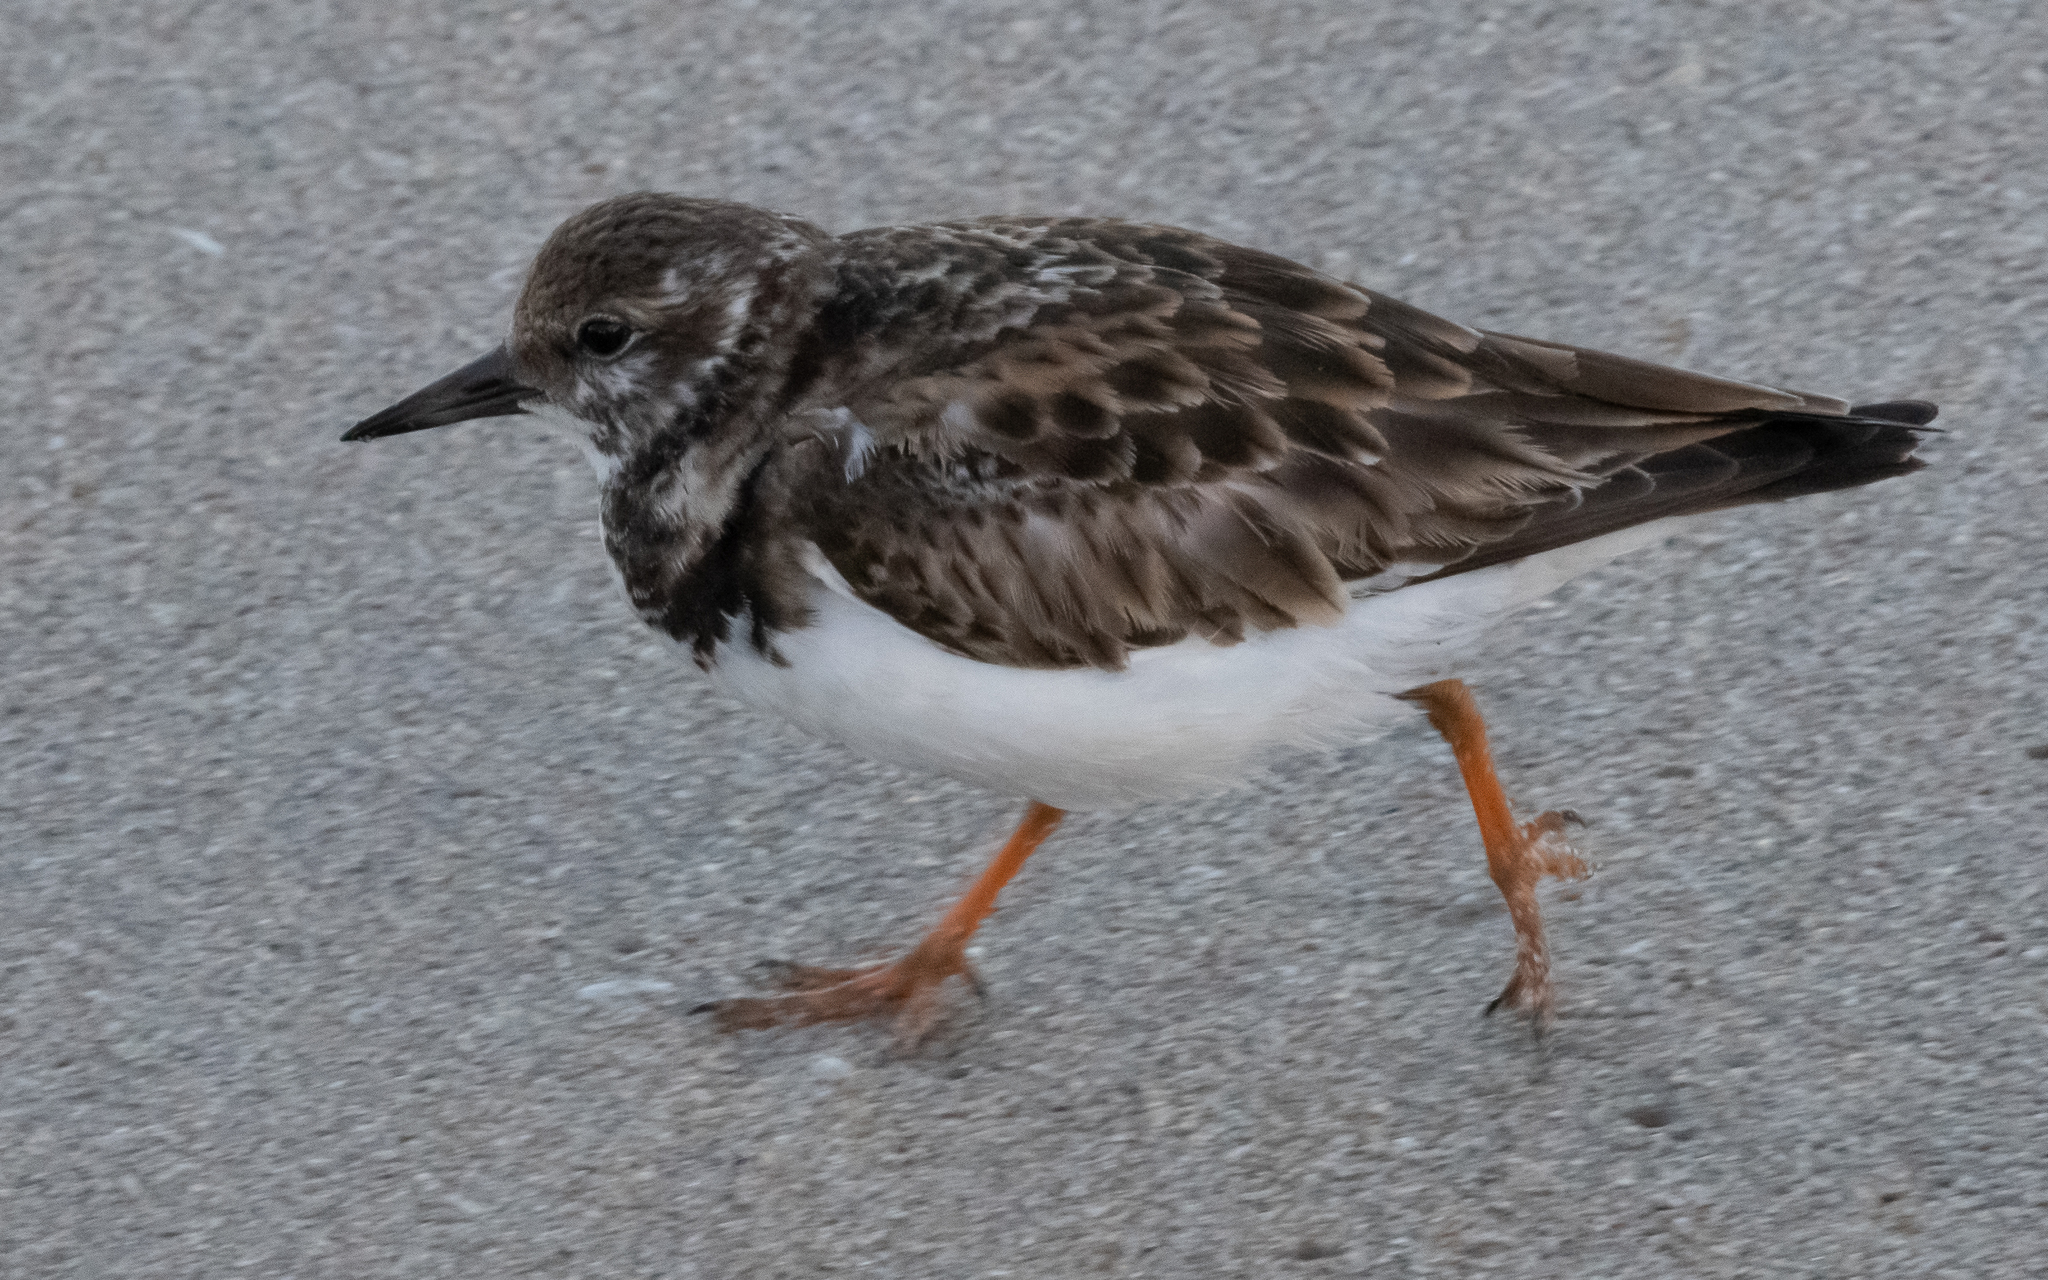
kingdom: Animalia
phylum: Chordata
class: Aves
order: Charadriiformes
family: Scolopacidae
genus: Arenaria
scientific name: Arenaria interpres
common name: Ruddy turnstone
